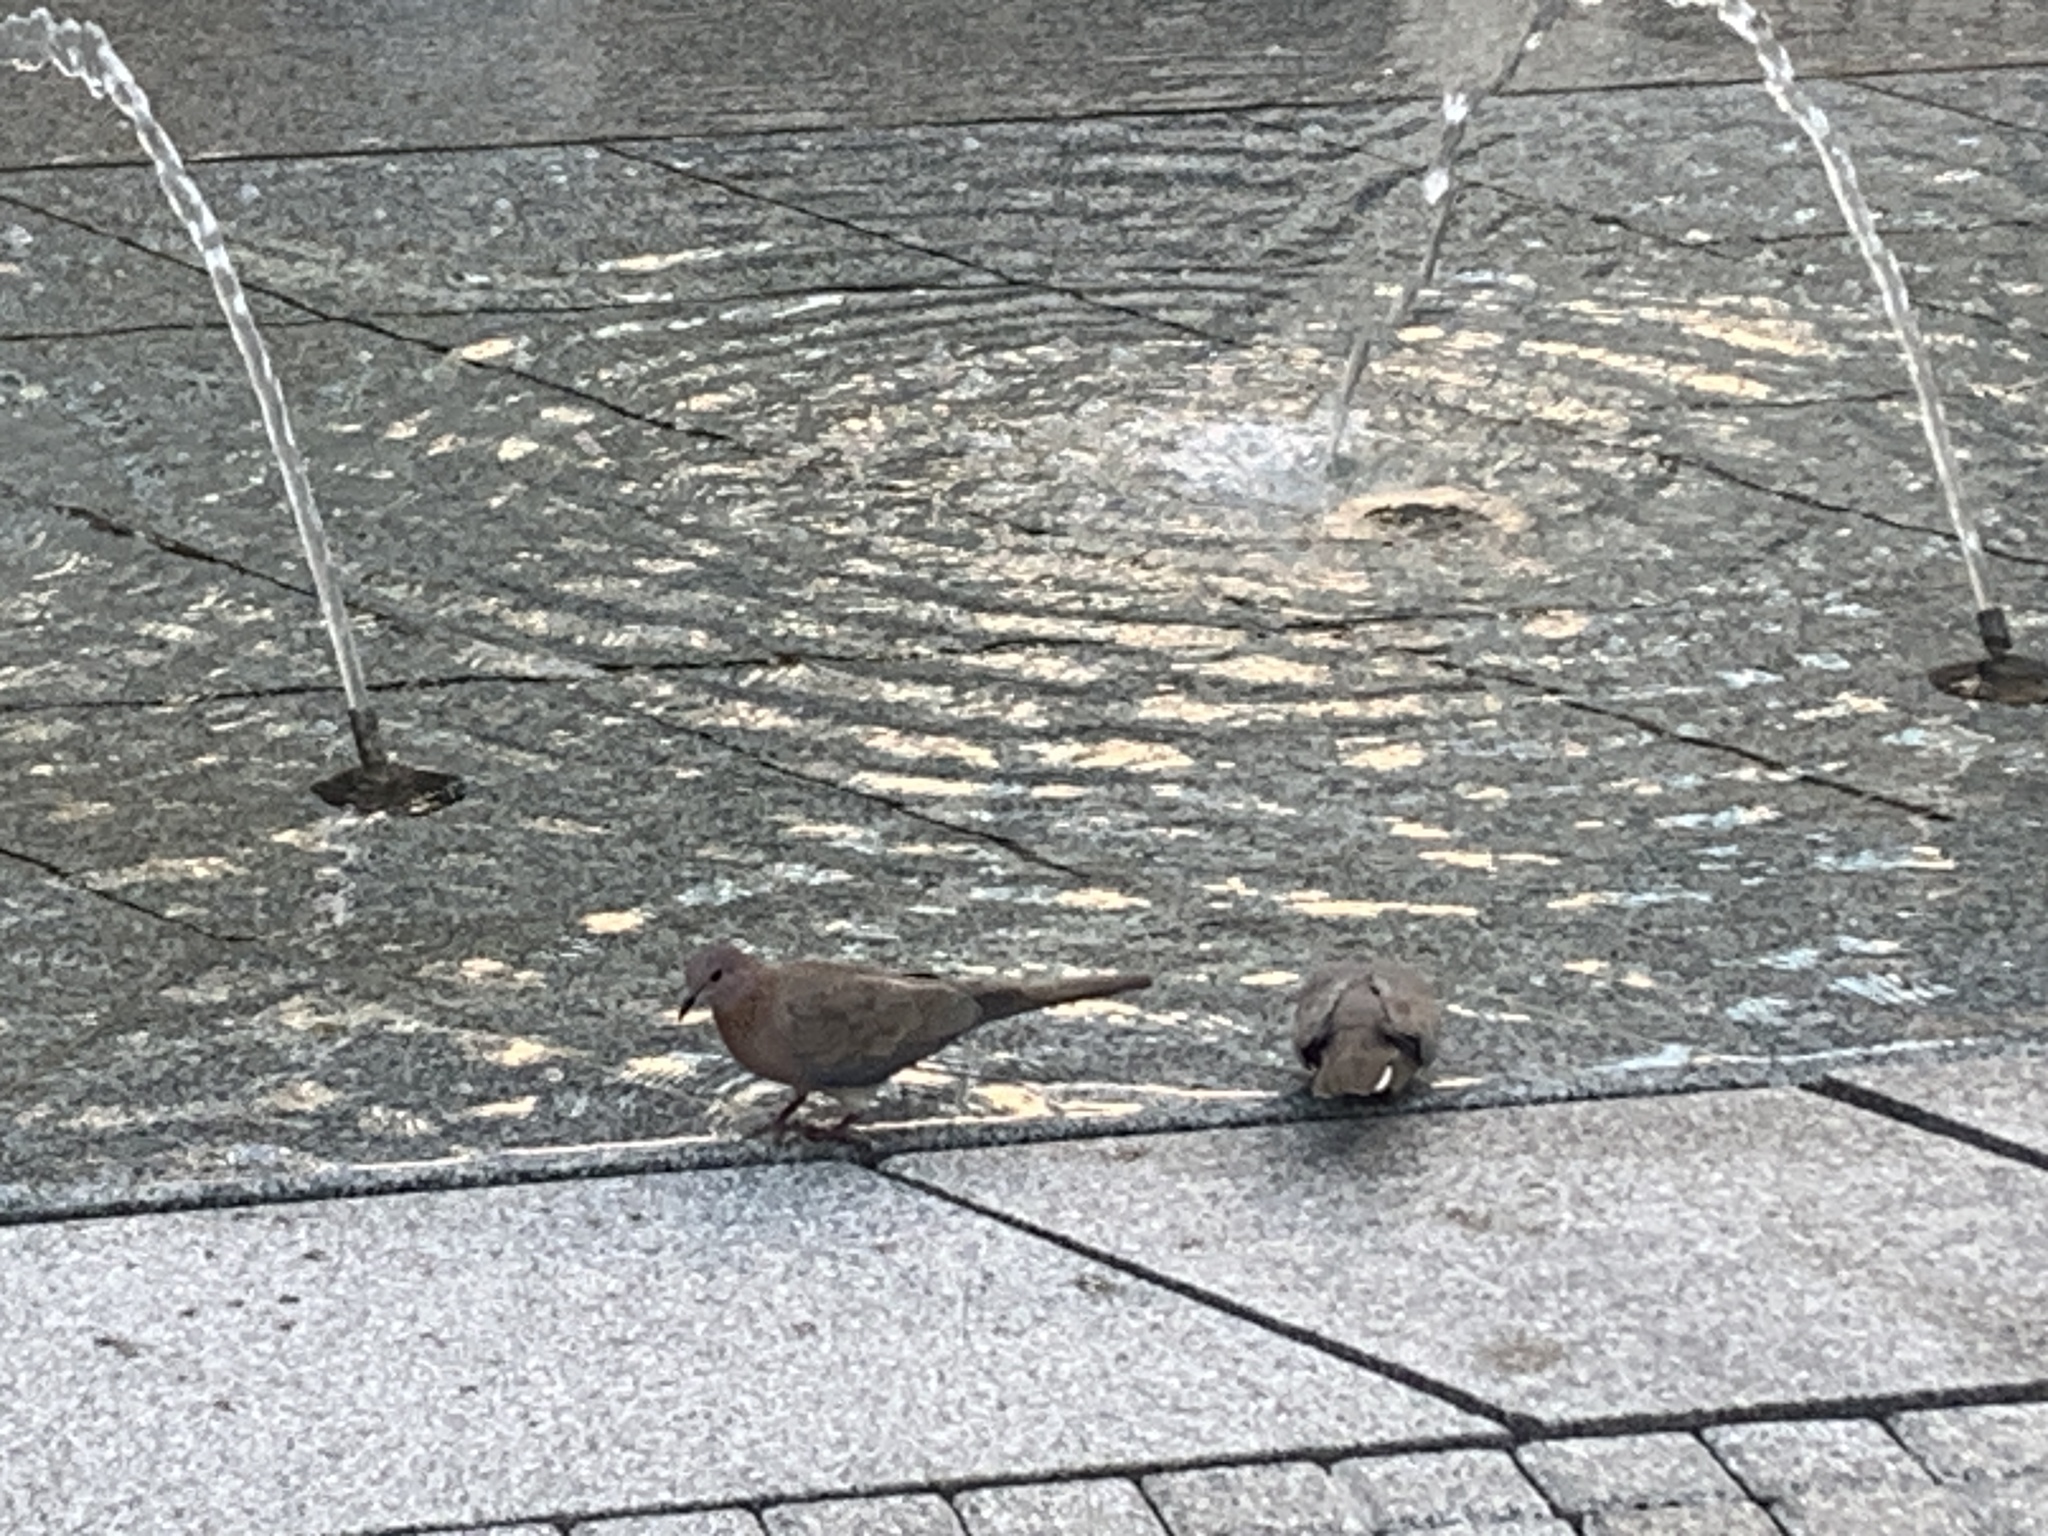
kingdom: Animalia
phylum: Chordata
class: Aves
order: Columbiformes
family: Columbidae
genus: Spilopelia
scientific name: Spilopelia senegalensis
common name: Laughing dove
